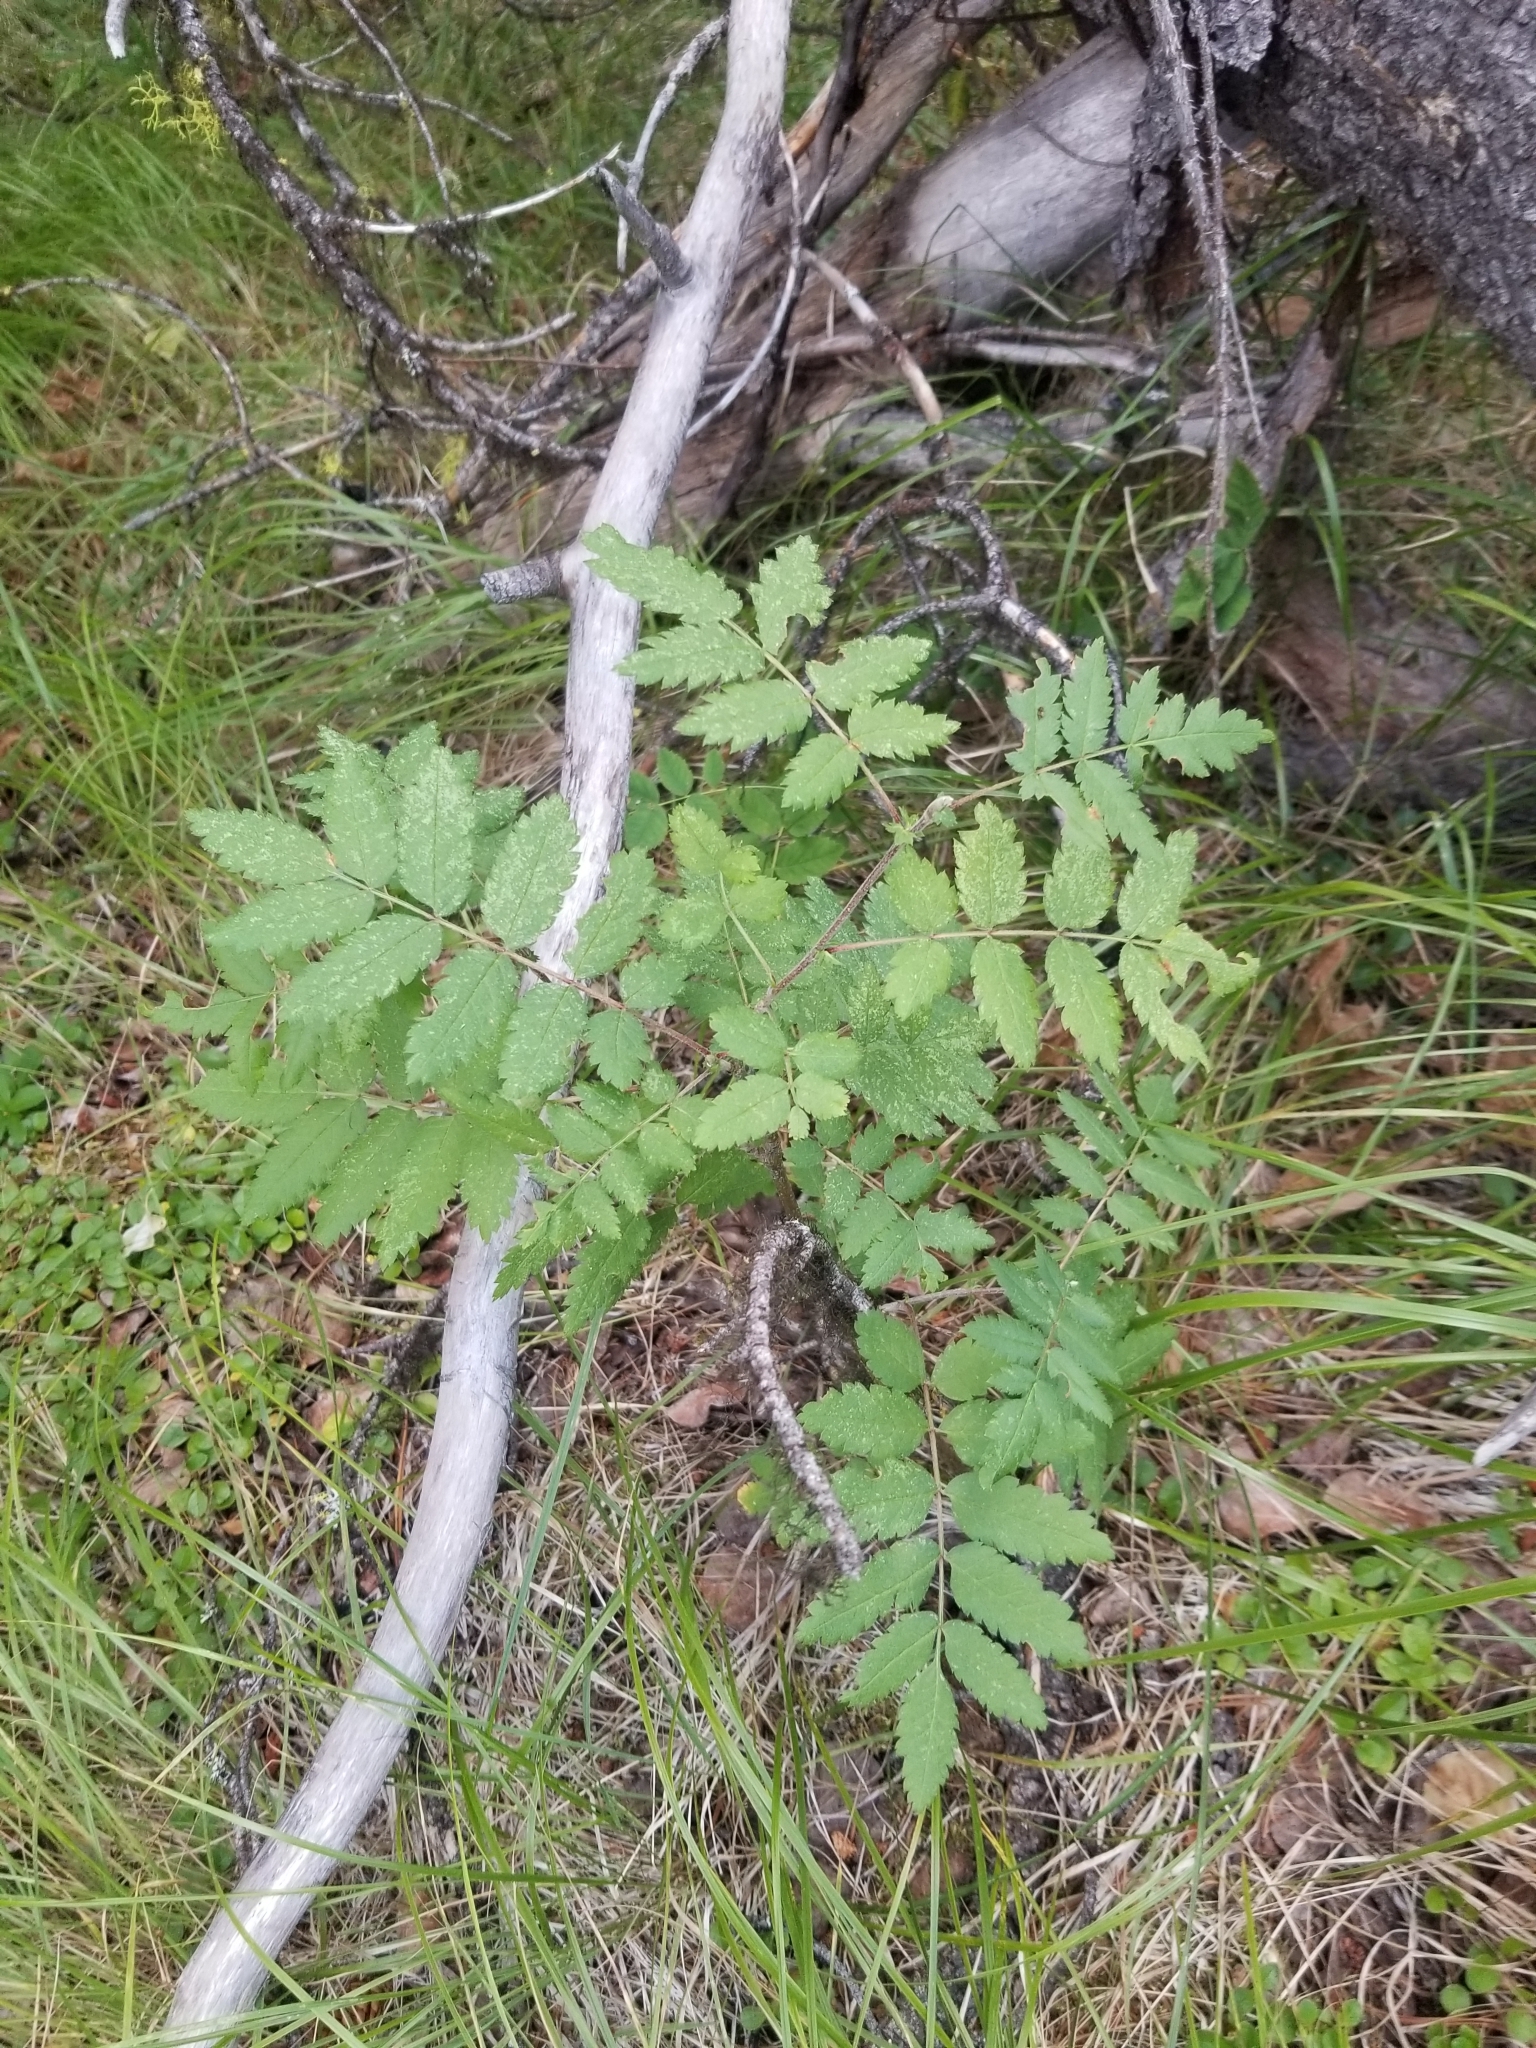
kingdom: Plantae
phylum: Tracheophyta
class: Magnoliopsida
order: Rosales
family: Rosaceae
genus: Sorbus
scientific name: Sorbus aucuparia
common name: Rowan
